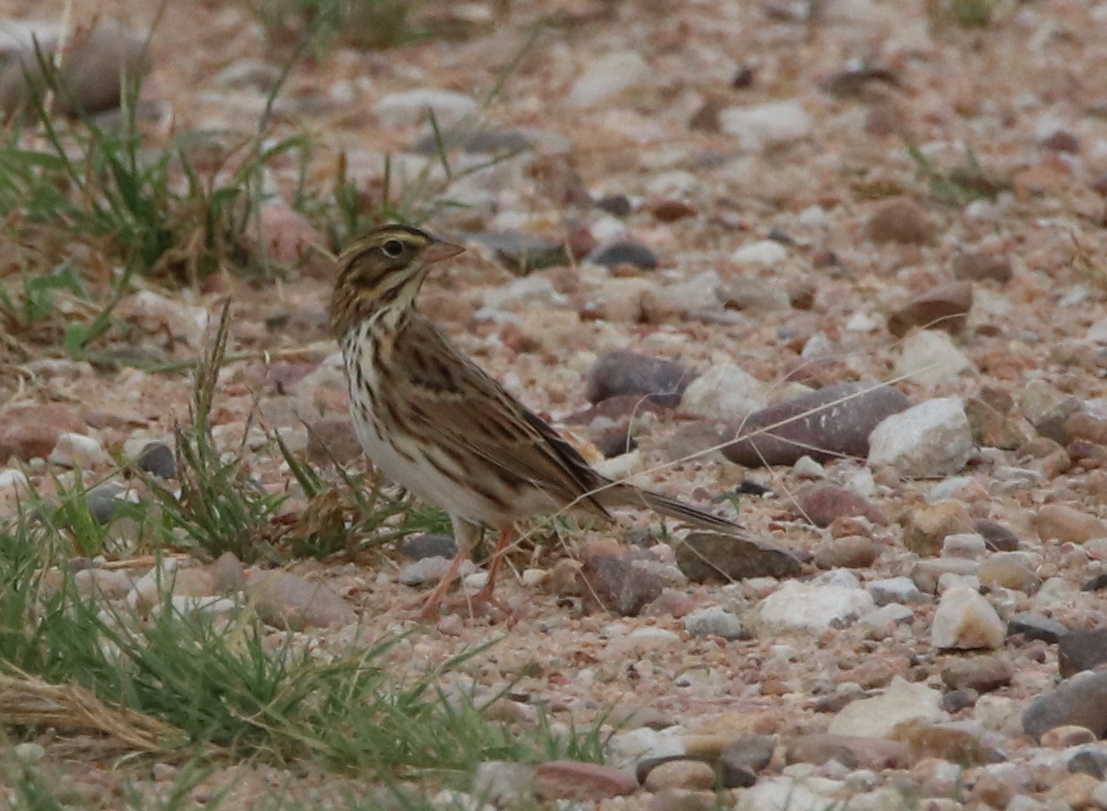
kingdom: Animalia
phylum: Chordata
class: Aves
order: Passeriformes
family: Passerellidae
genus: Passerculus
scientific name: Passerculus sandwichensis
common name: Savannah sparrow
